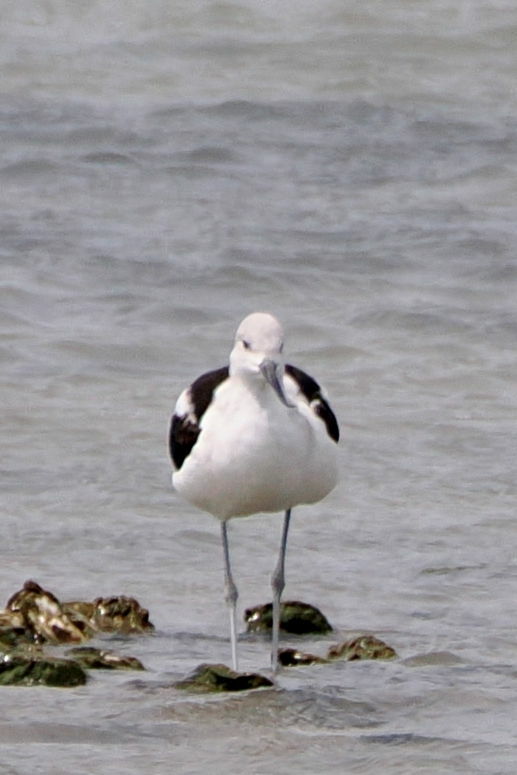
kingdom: Animalia
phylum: Chordata
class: Aves
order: Charadriiformes
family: Recurvirostridae
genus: Recurvirostra
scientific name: Recurvirostra americana
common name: American avocet
